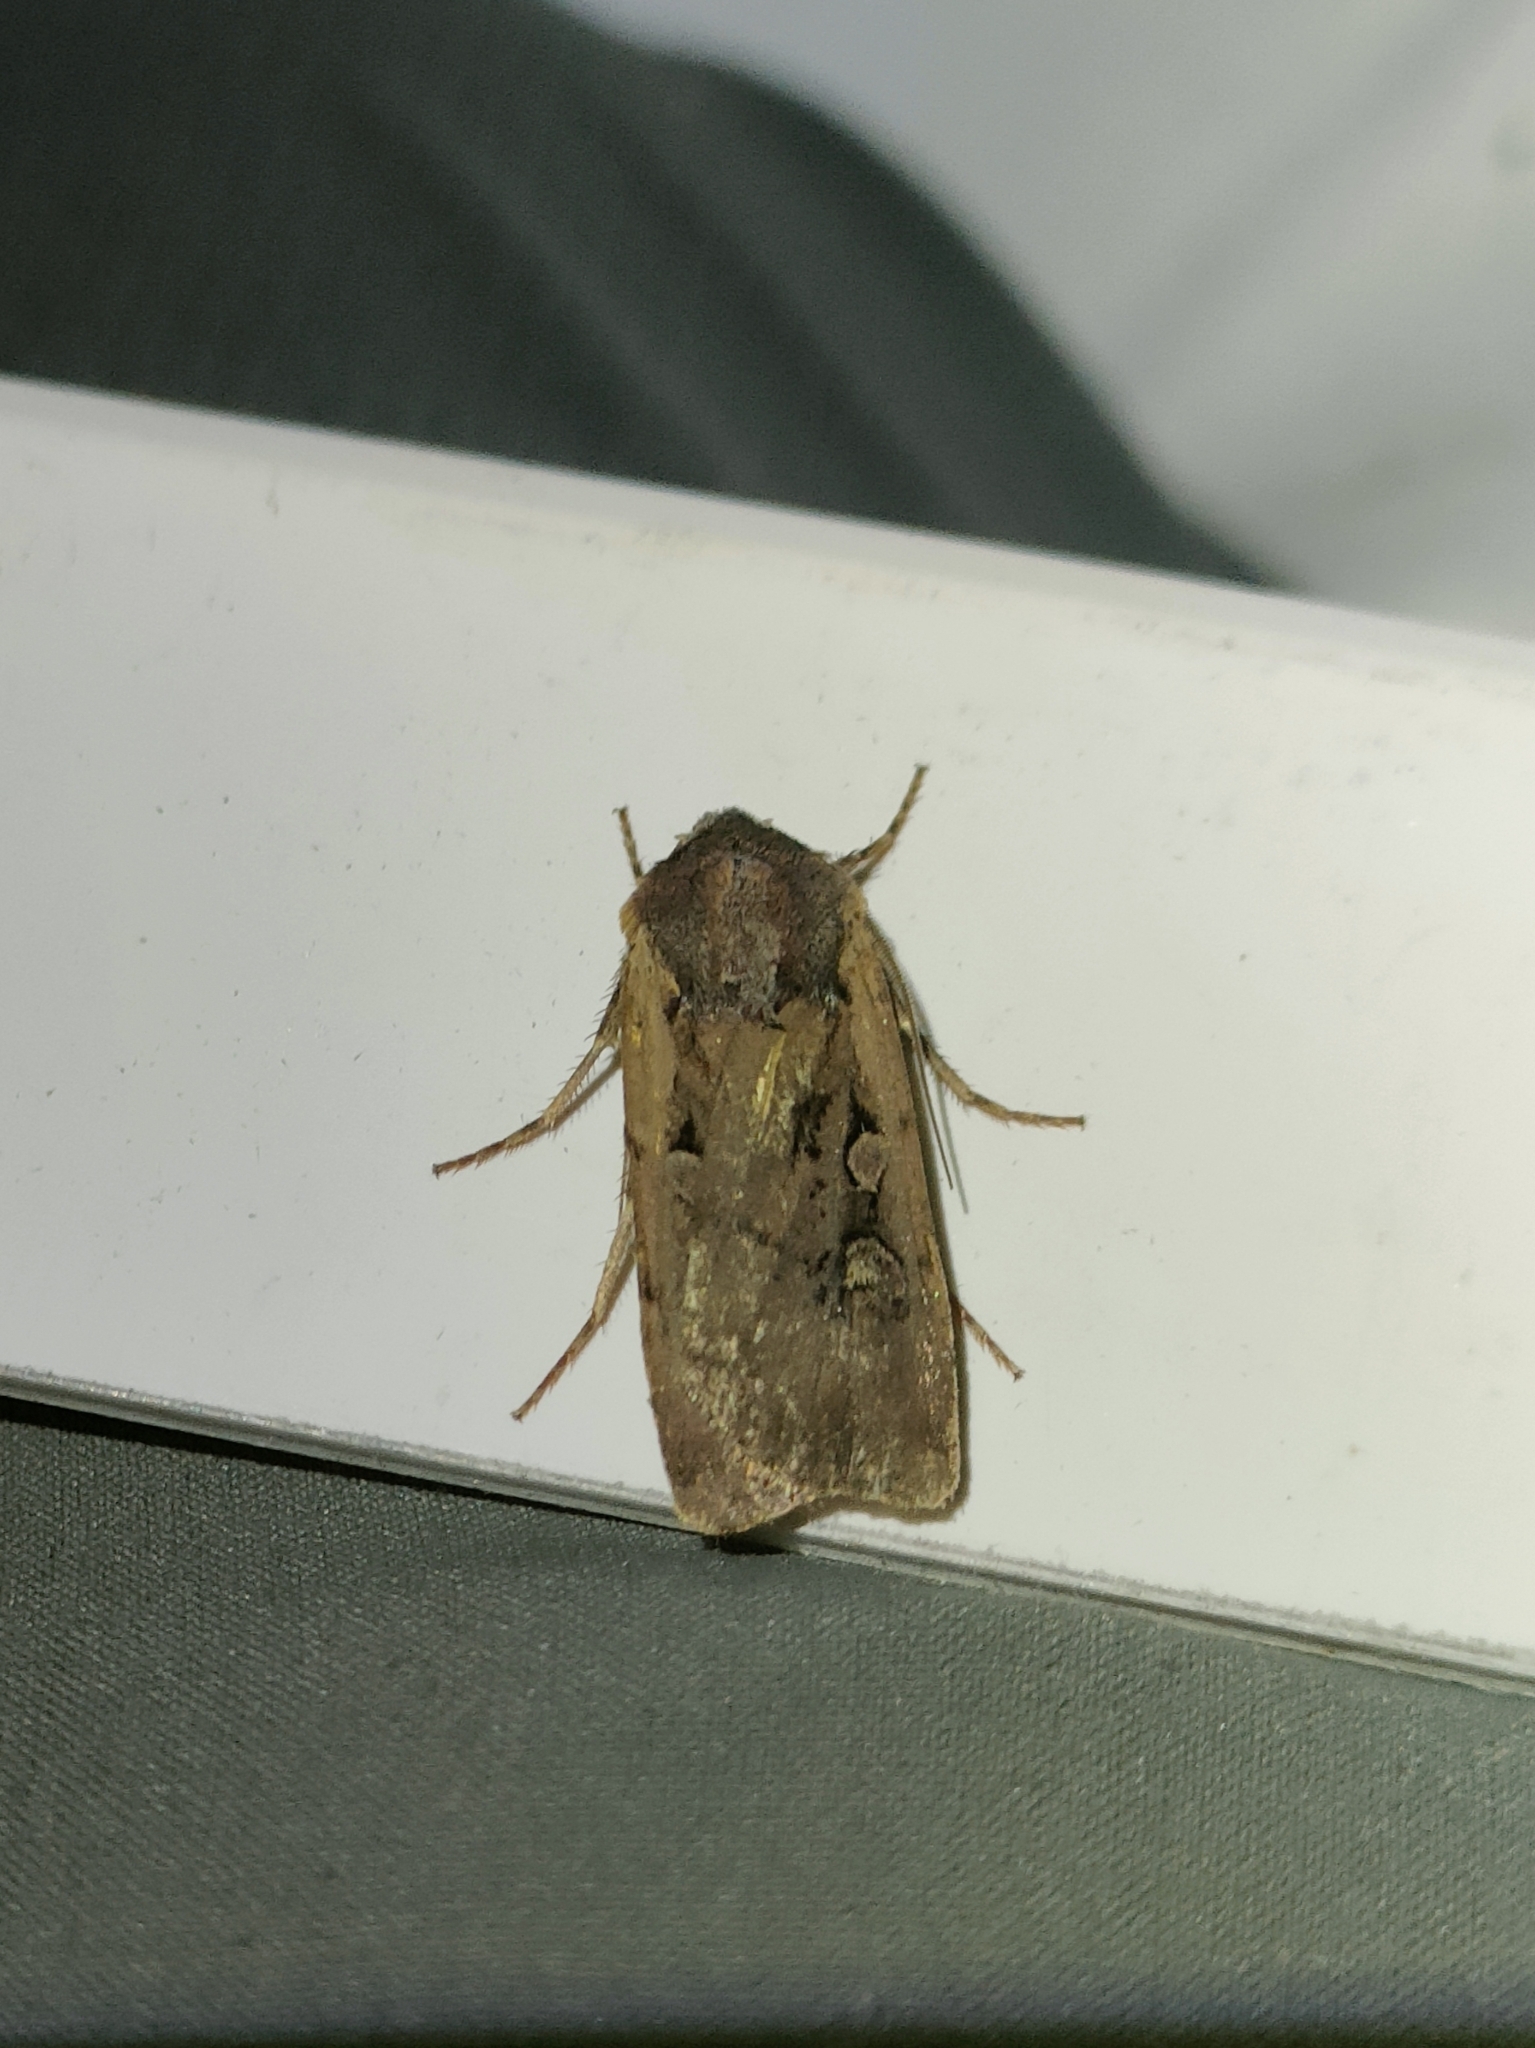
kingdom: Animalia
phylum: Arthropoda
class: Insecta
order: Lepidoptera
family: Noctuidae
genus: Euxoa
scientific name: Euxoa obelisca
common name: Square-spot dart
